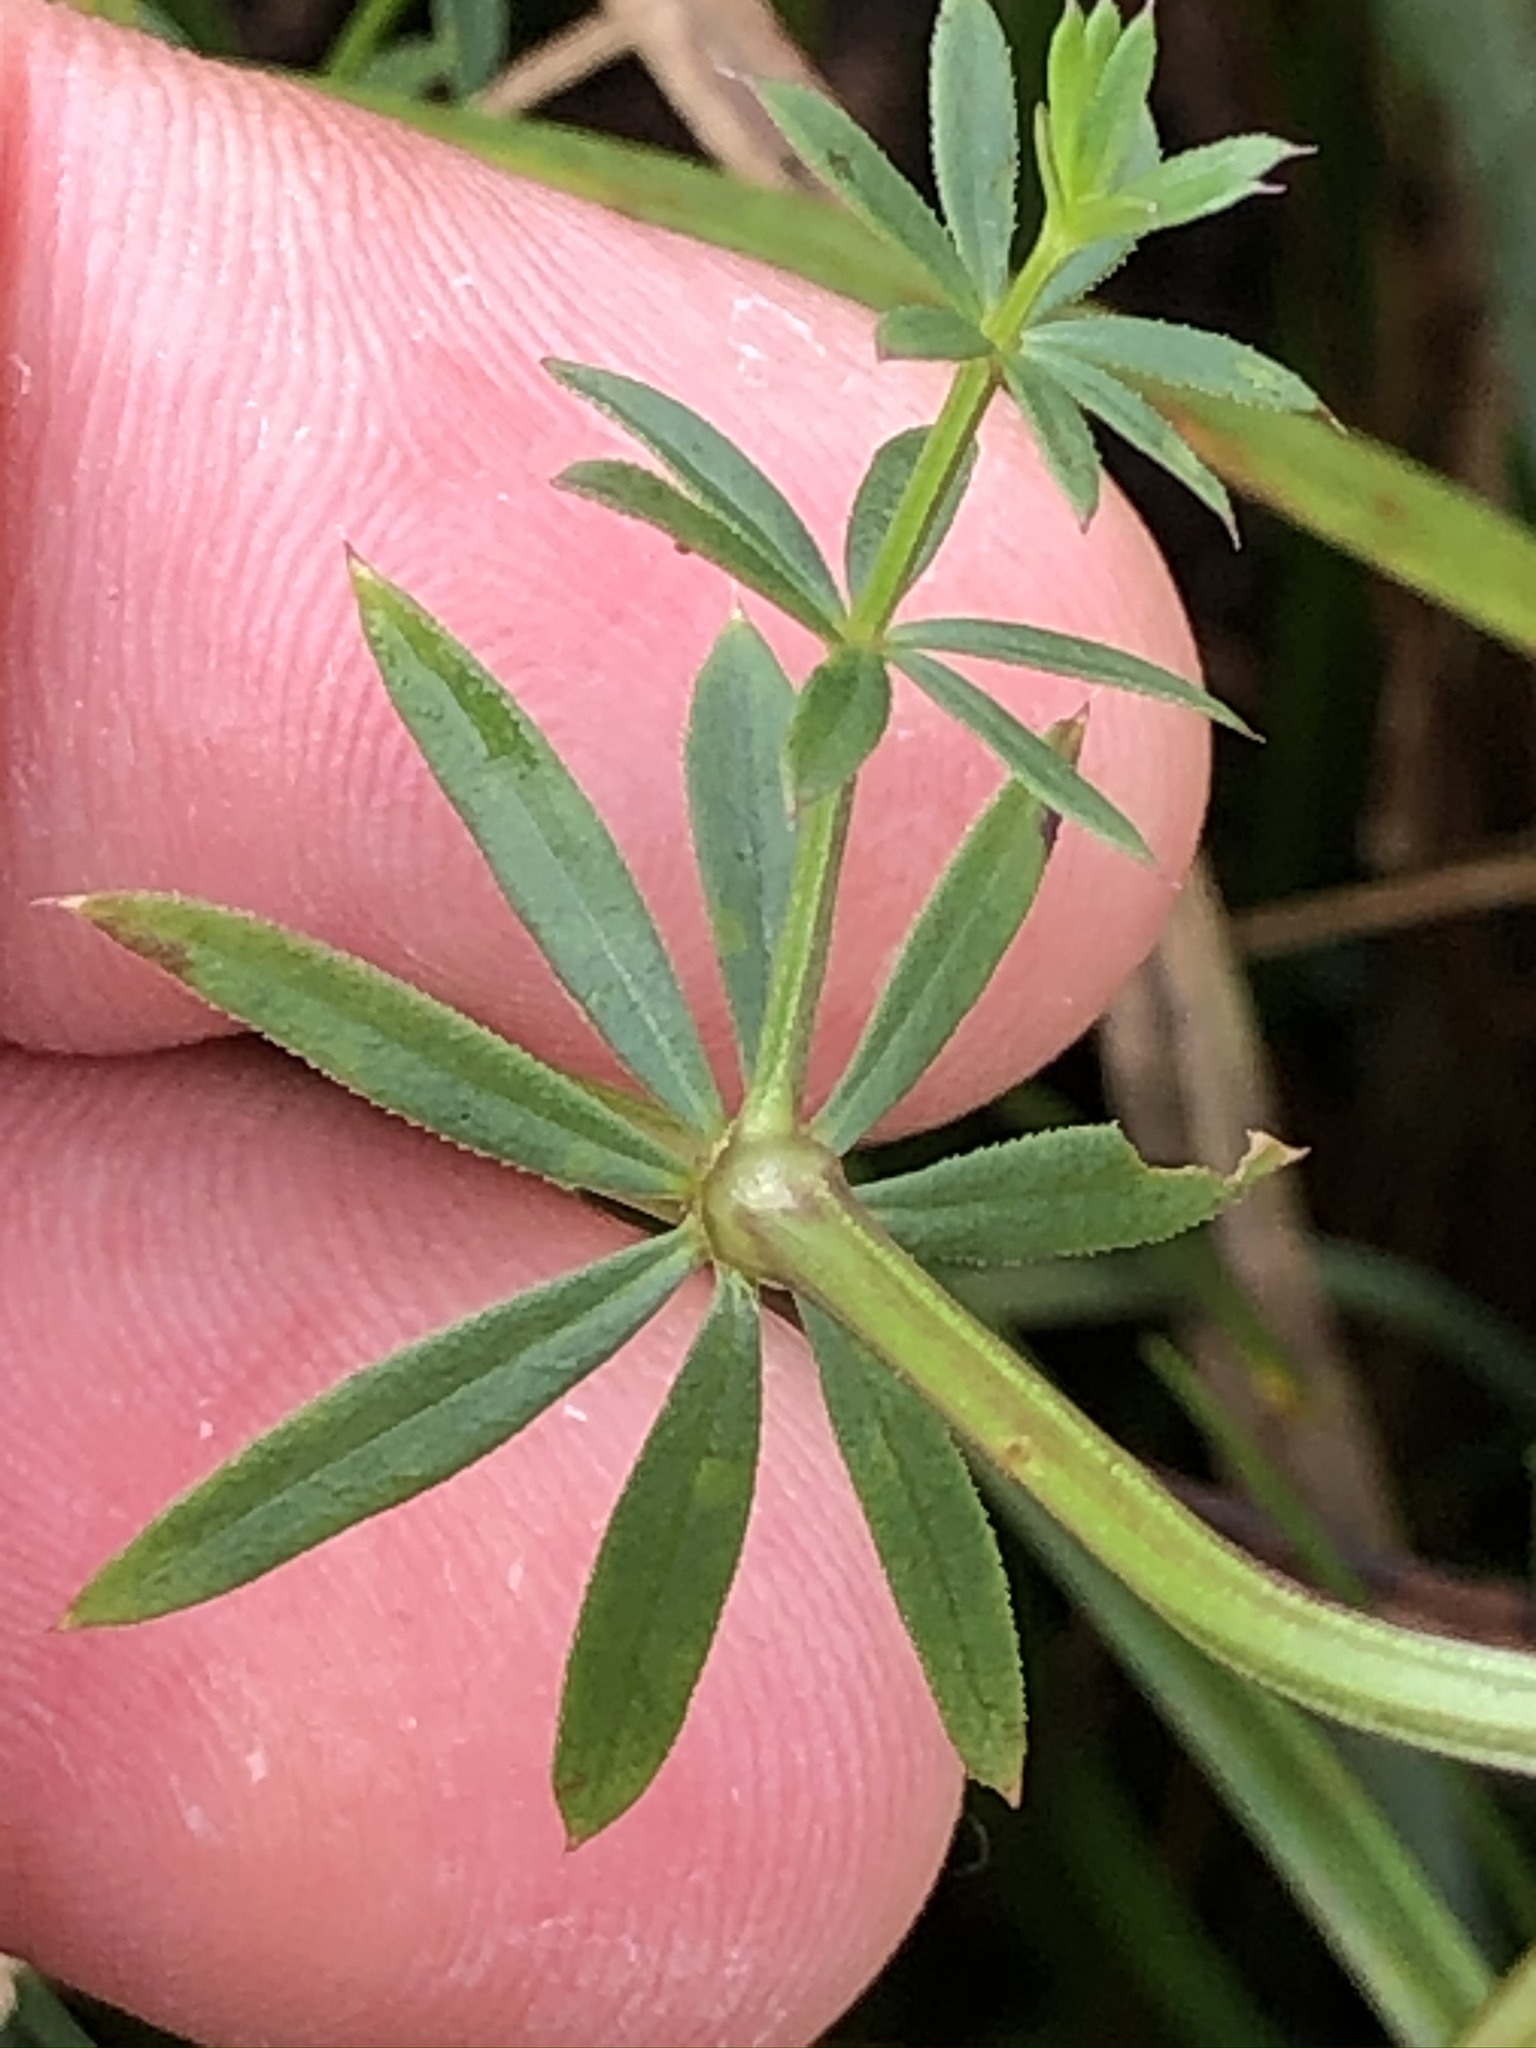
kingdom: Plantae
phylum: Tracheophyta
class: Magnoliopsida
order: Gentianales
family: Rubiaceae
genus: Galium
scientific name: Galium album
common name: White bedstraw
